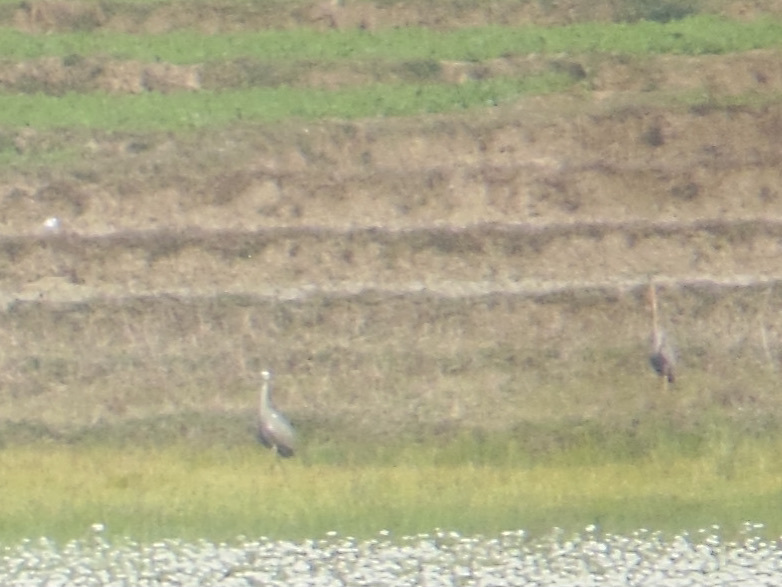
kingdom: Animalia
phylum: Chordata
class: Aves
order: Pelecaniformes
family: Ardeidae
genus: Ardea
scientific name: Ardea cinerea
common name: Grey heron
